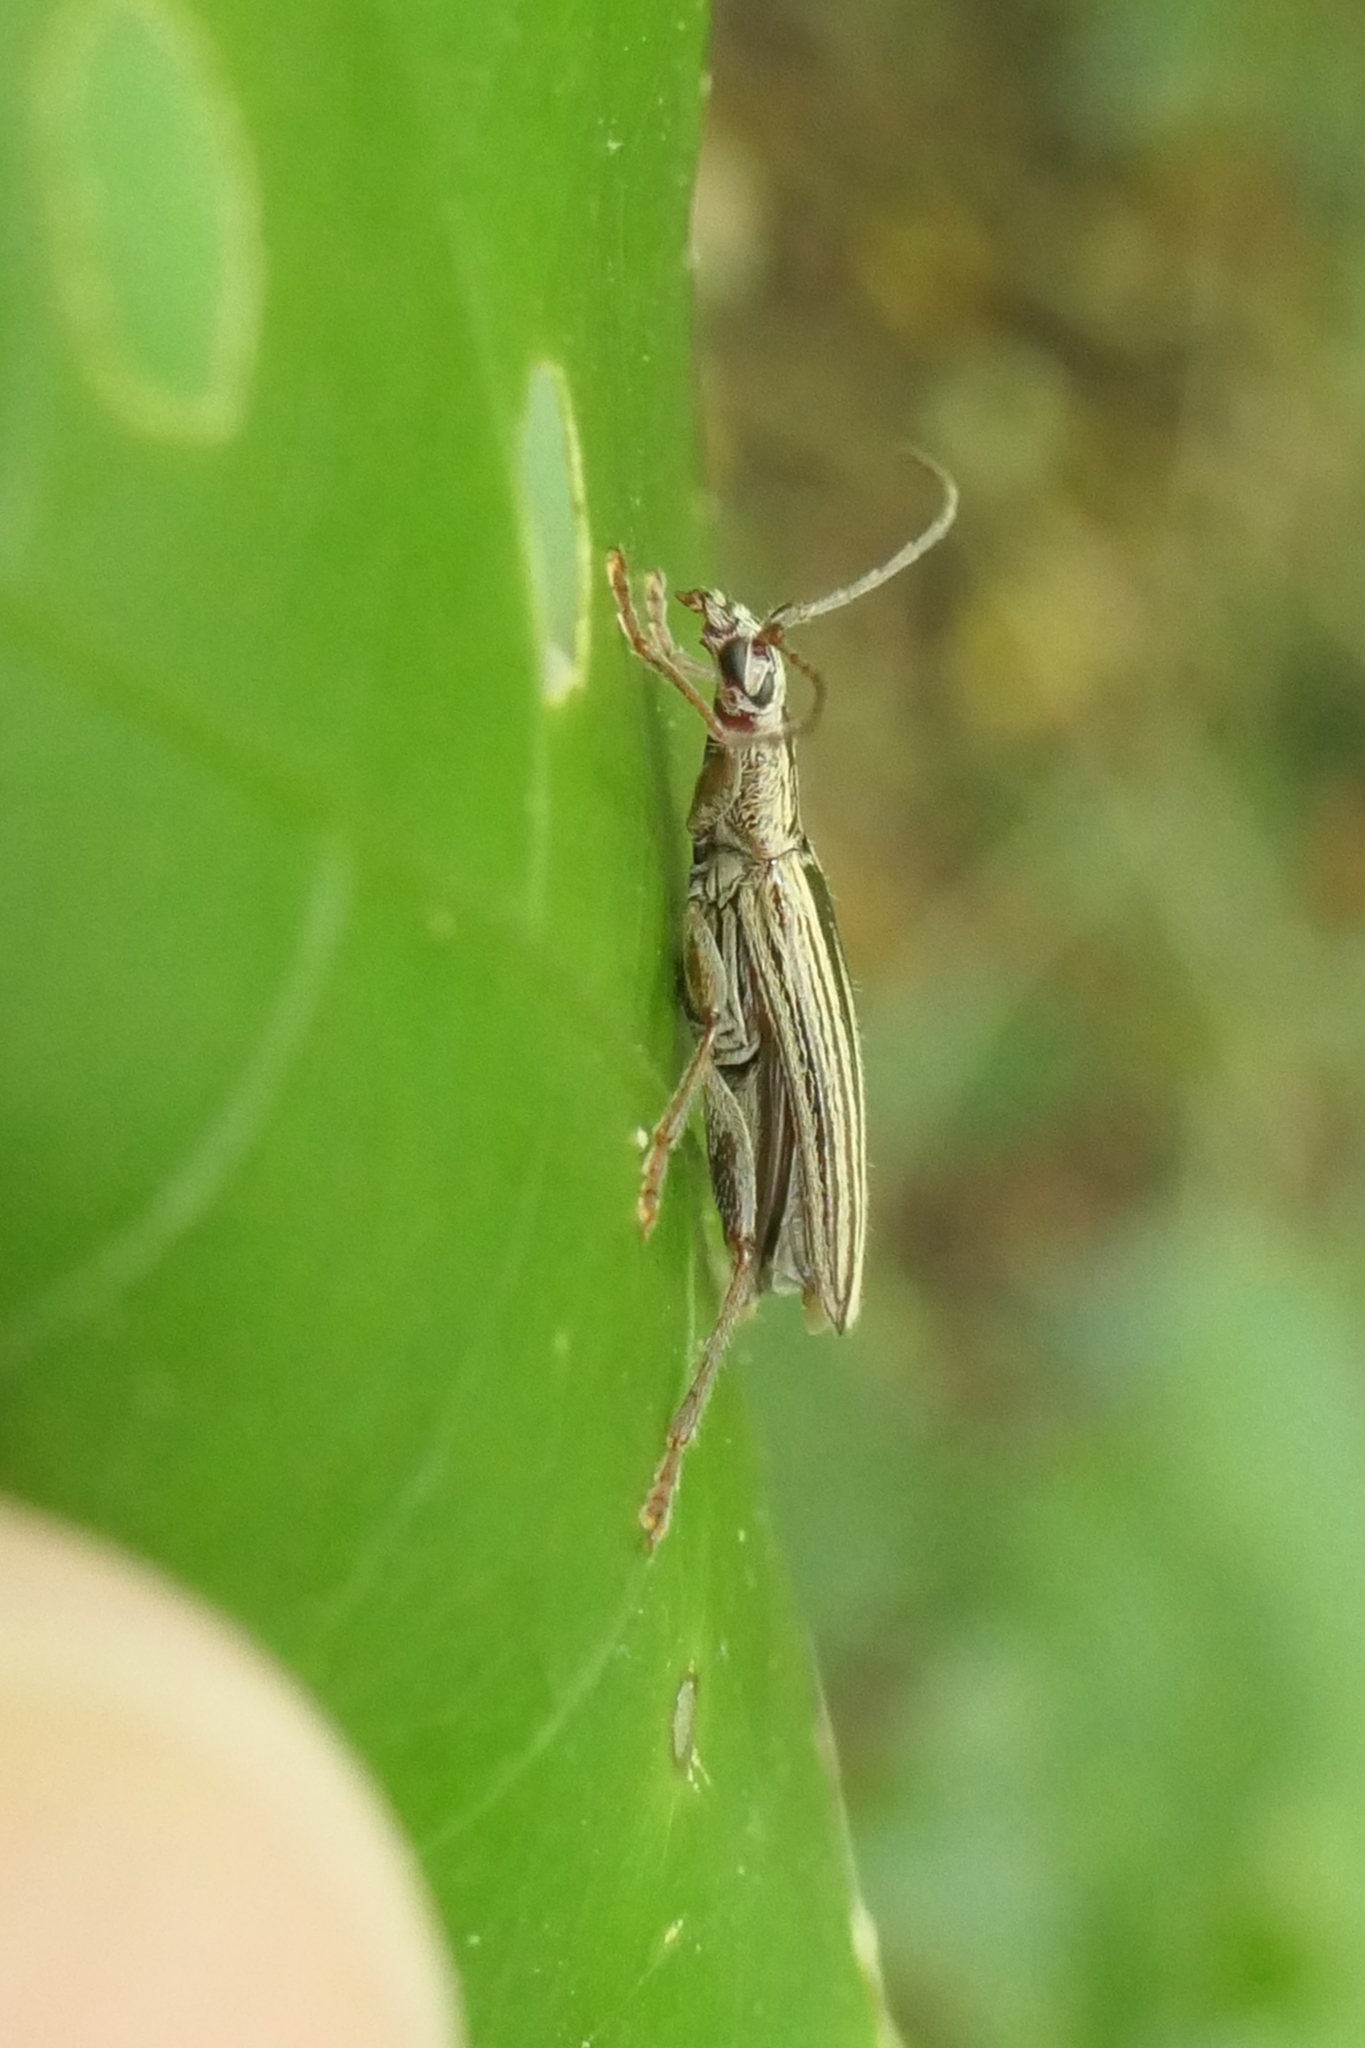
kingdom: Animalia
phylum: Arthropoda
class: Insecta
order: Coleoptera
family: Cerambycidae
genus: Coptomma
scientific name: Coptomma sulcatum
